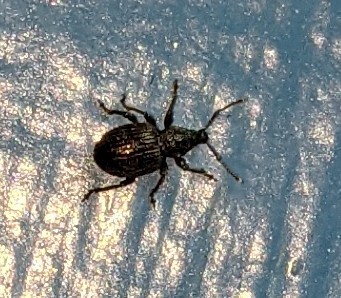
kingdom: Animalia
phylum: Arthropoda
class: Insecta
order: Coleoptera
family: Curculionidae
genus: Otiorhynchus
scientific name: Otiorhynchus ovatus
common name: Strawberry root weevil
